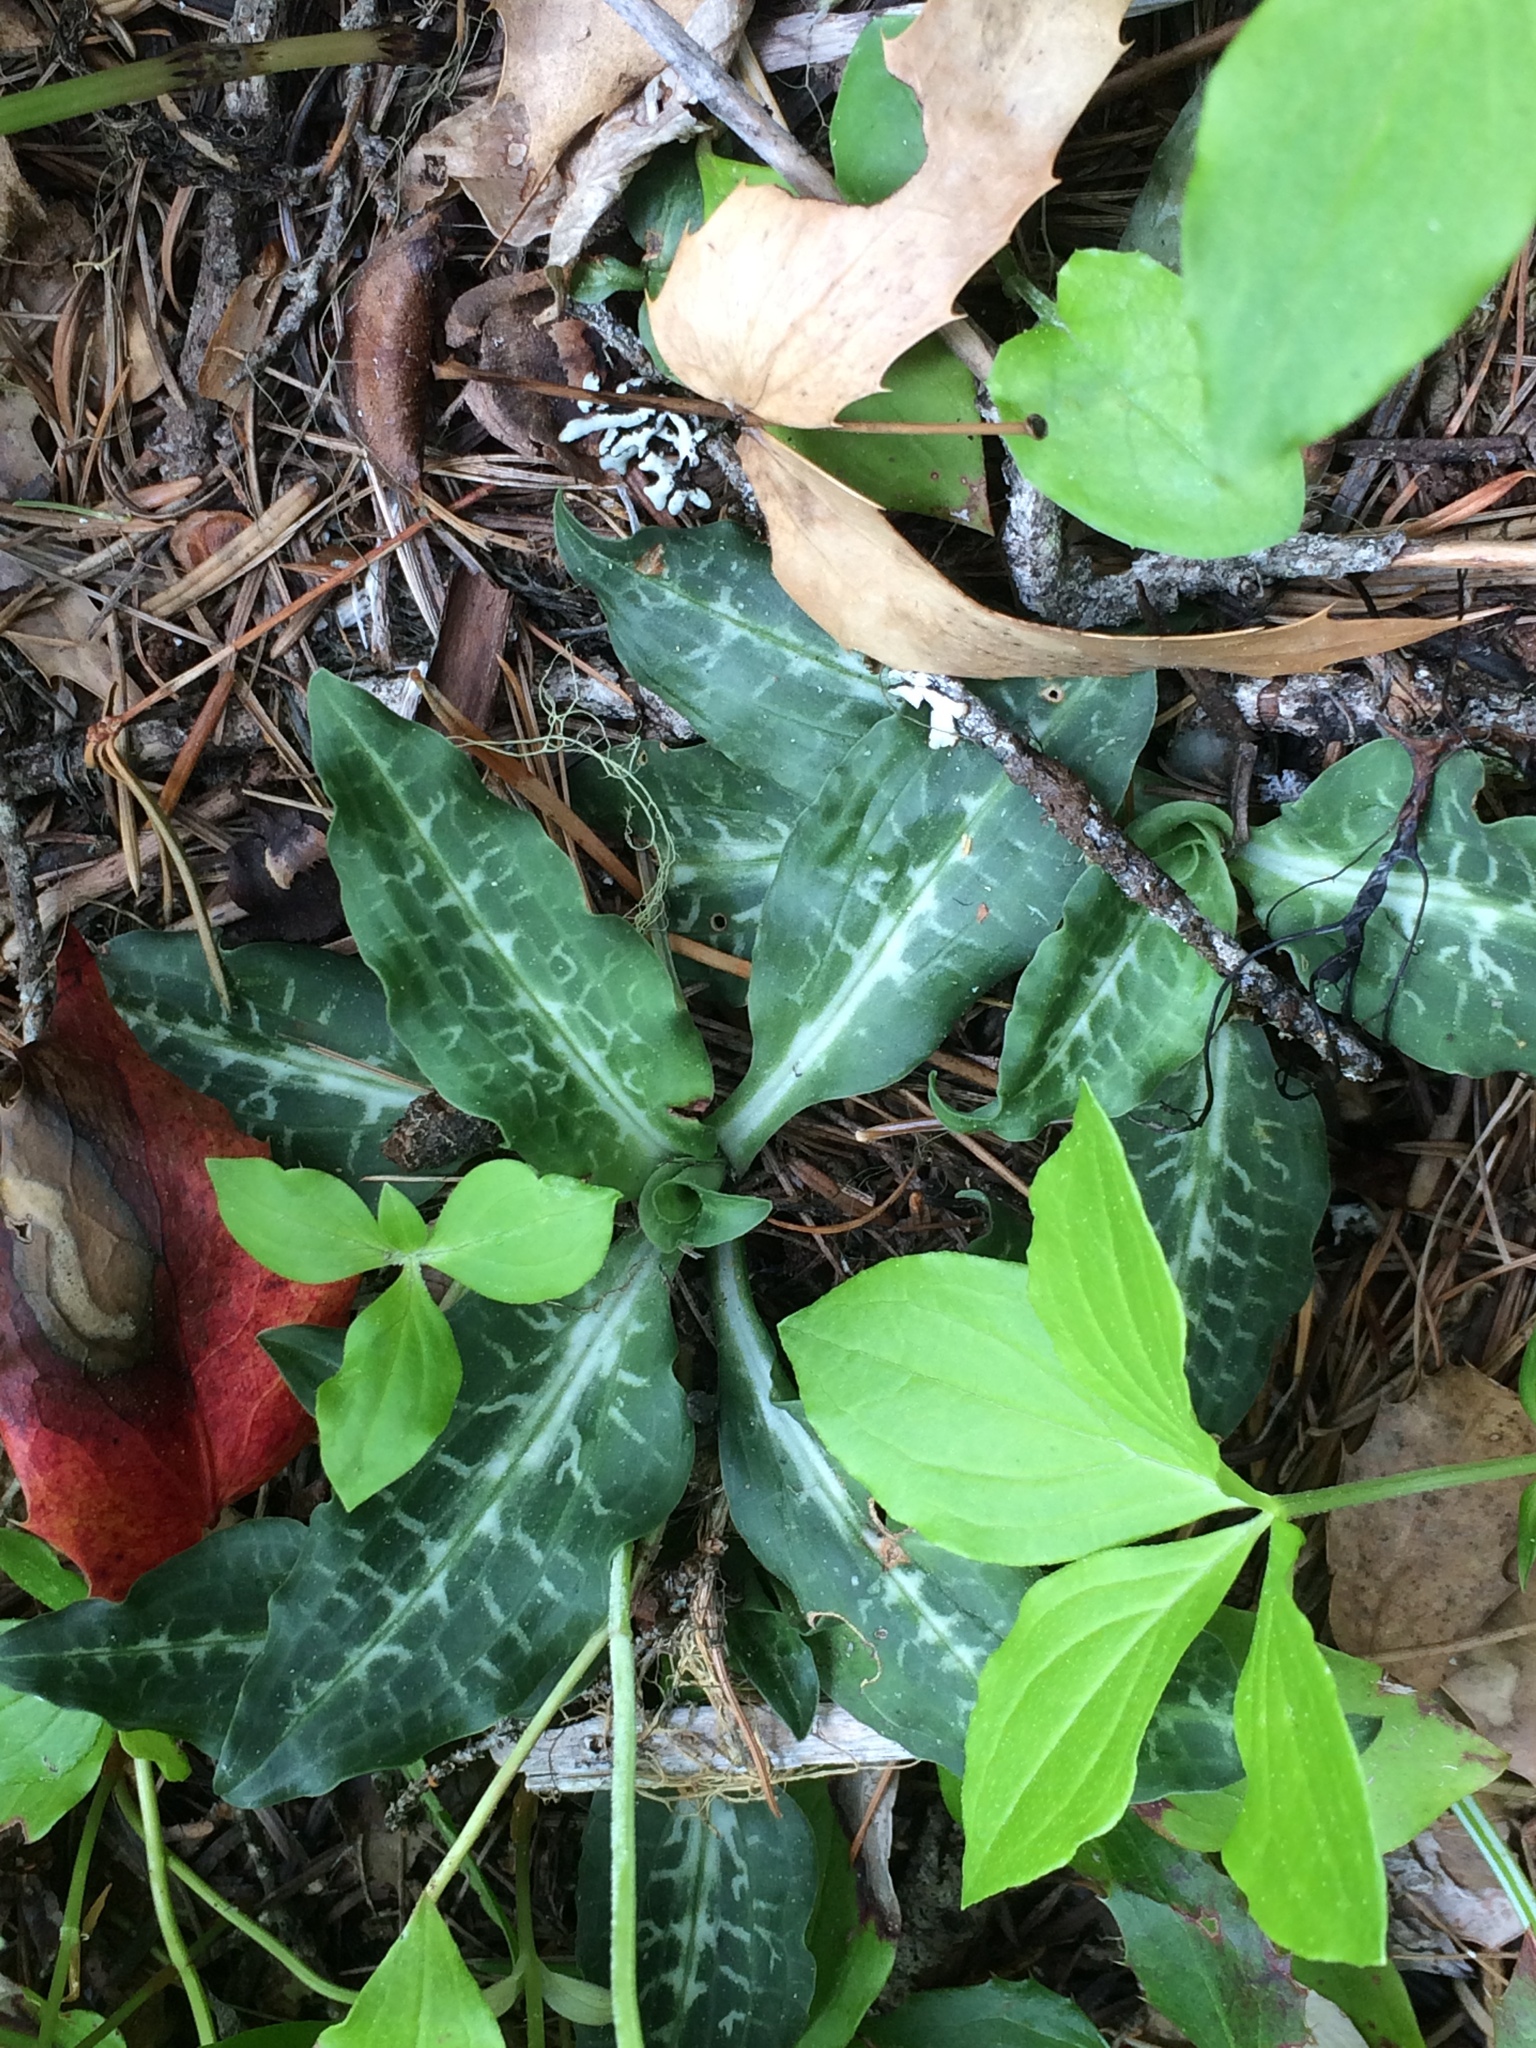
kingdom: Plantae
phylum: Tracheophyta
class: Liliopsida
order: Asparagales
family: Orchidaceae
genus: Goodyera
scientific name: Goodyera oblongifolia
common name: Giant rattlesnake-plantain
